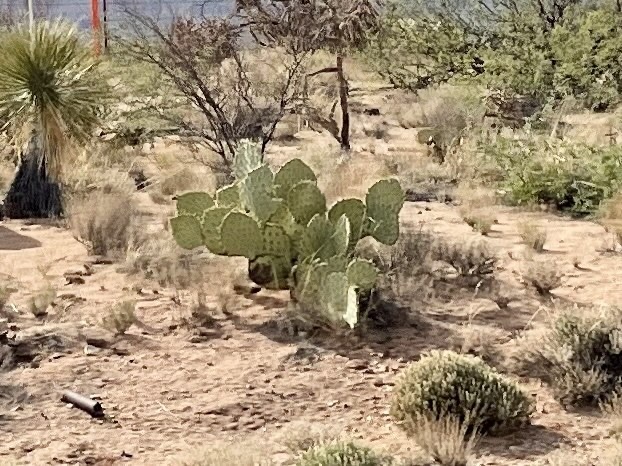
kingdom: Plantae
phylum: Tracheophyta
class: Magnoliopsida
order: Caryophyllales
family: Cactaceae
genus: Opuntia
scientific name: Opuntia engelmannii
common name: Cactus-apple
